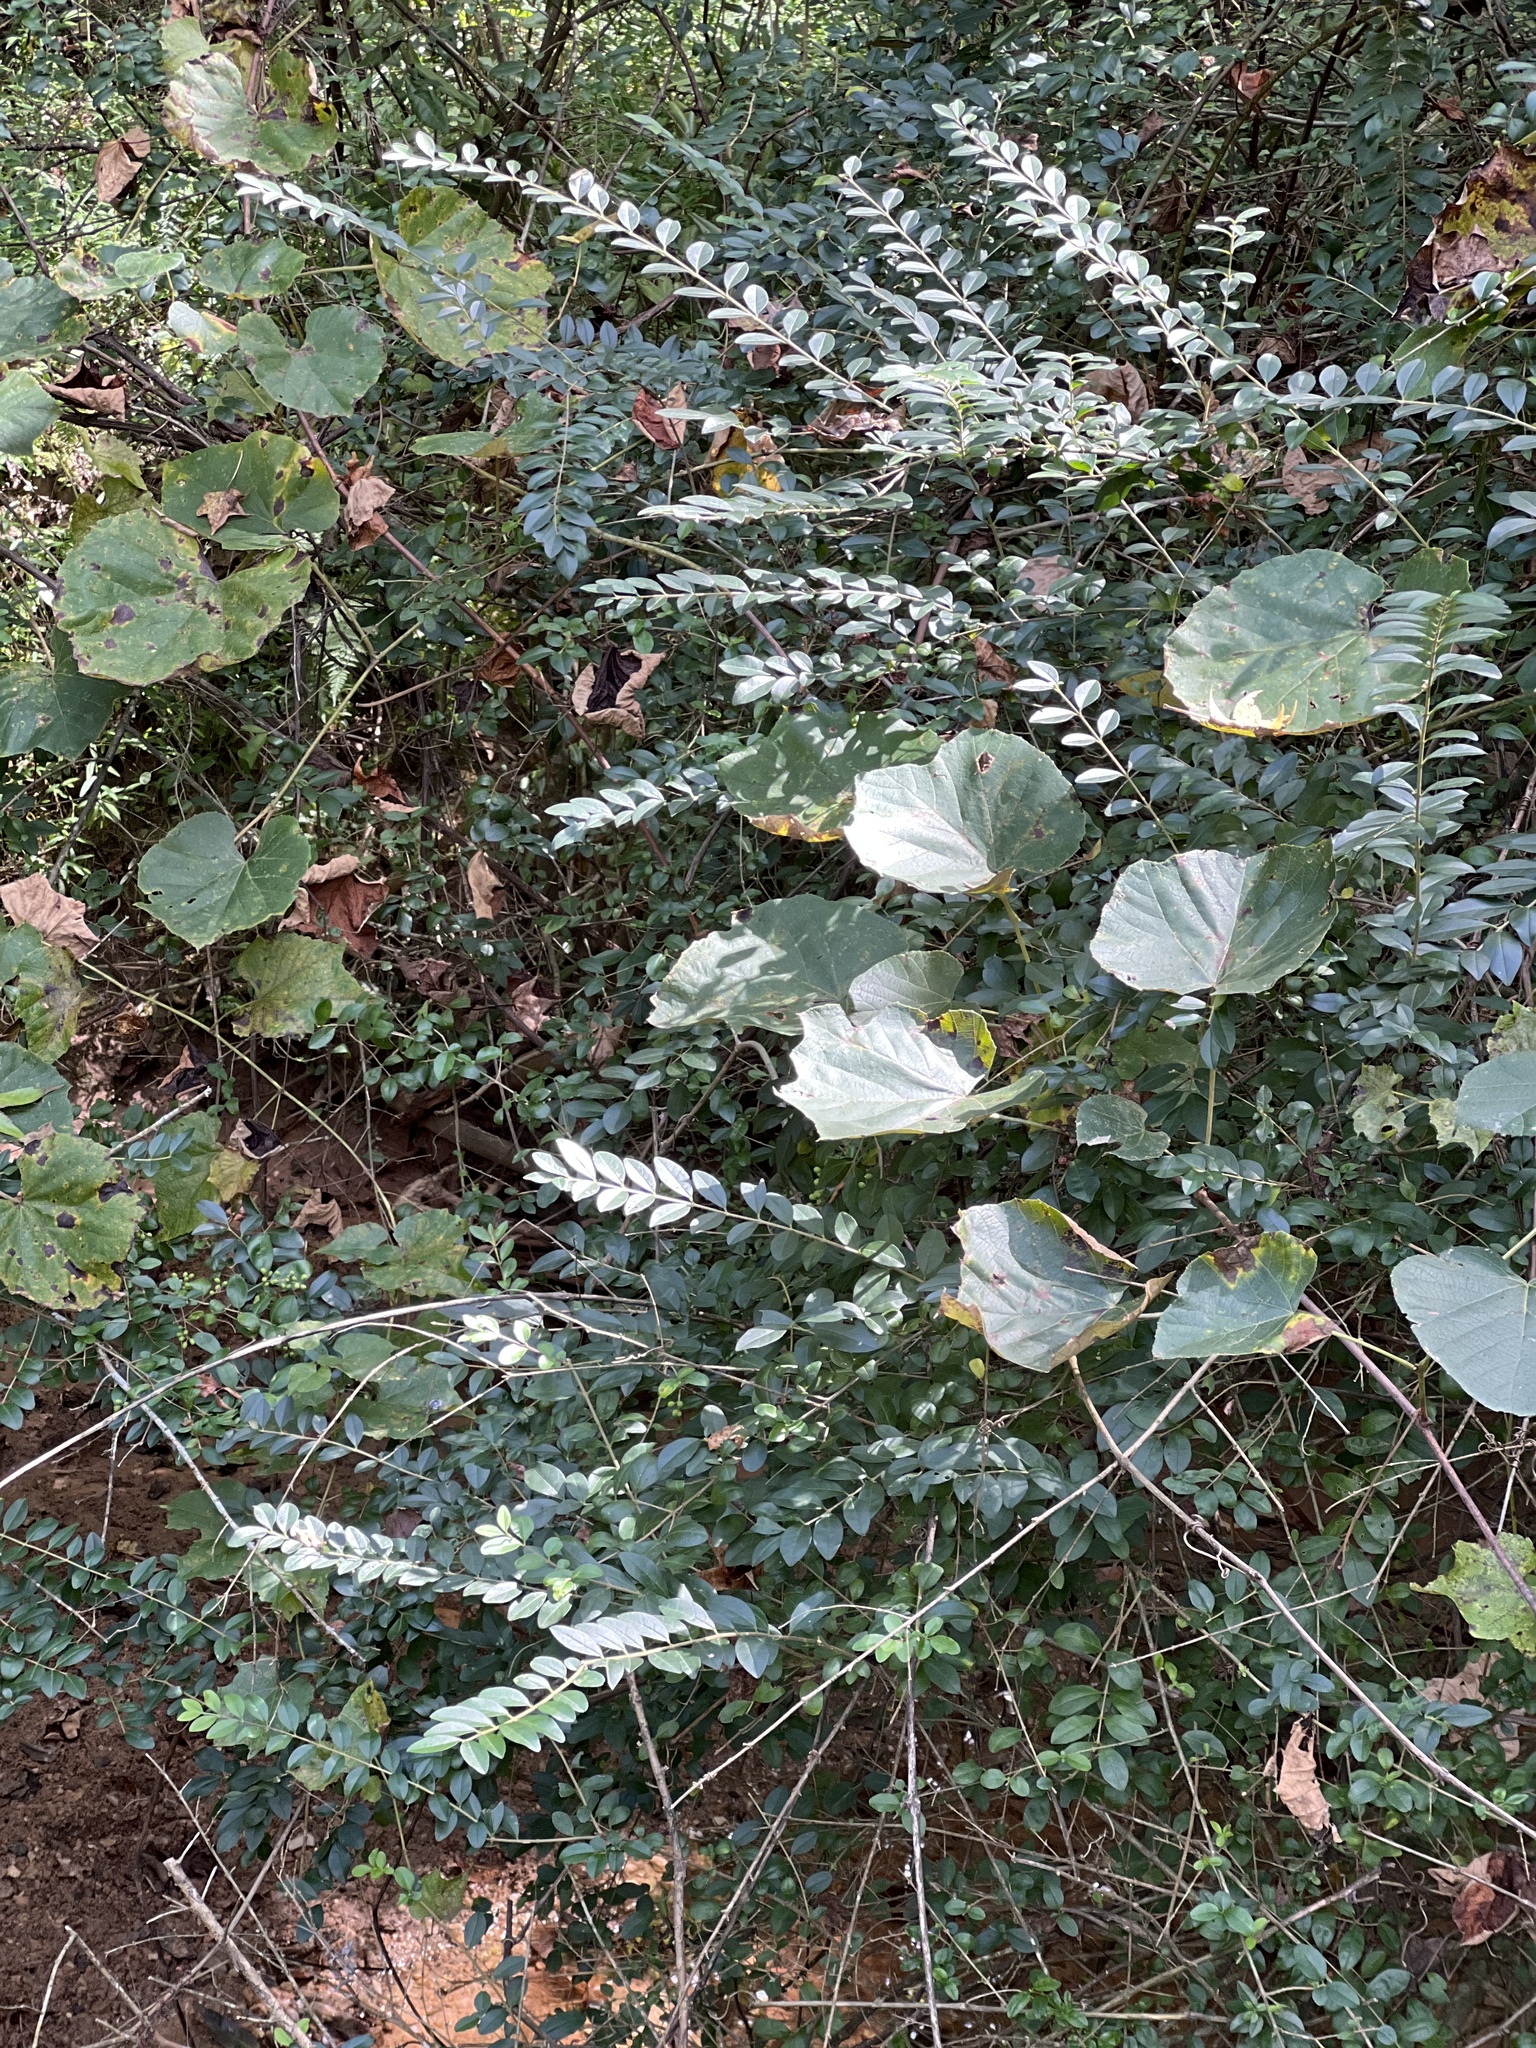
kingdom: Plantae
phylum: Tracheophyta
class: Magnoliopsida
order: Lamiales
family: Oleaceae
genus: Ligustrum
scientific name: Ligustrum sinense
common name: Chinese privet
